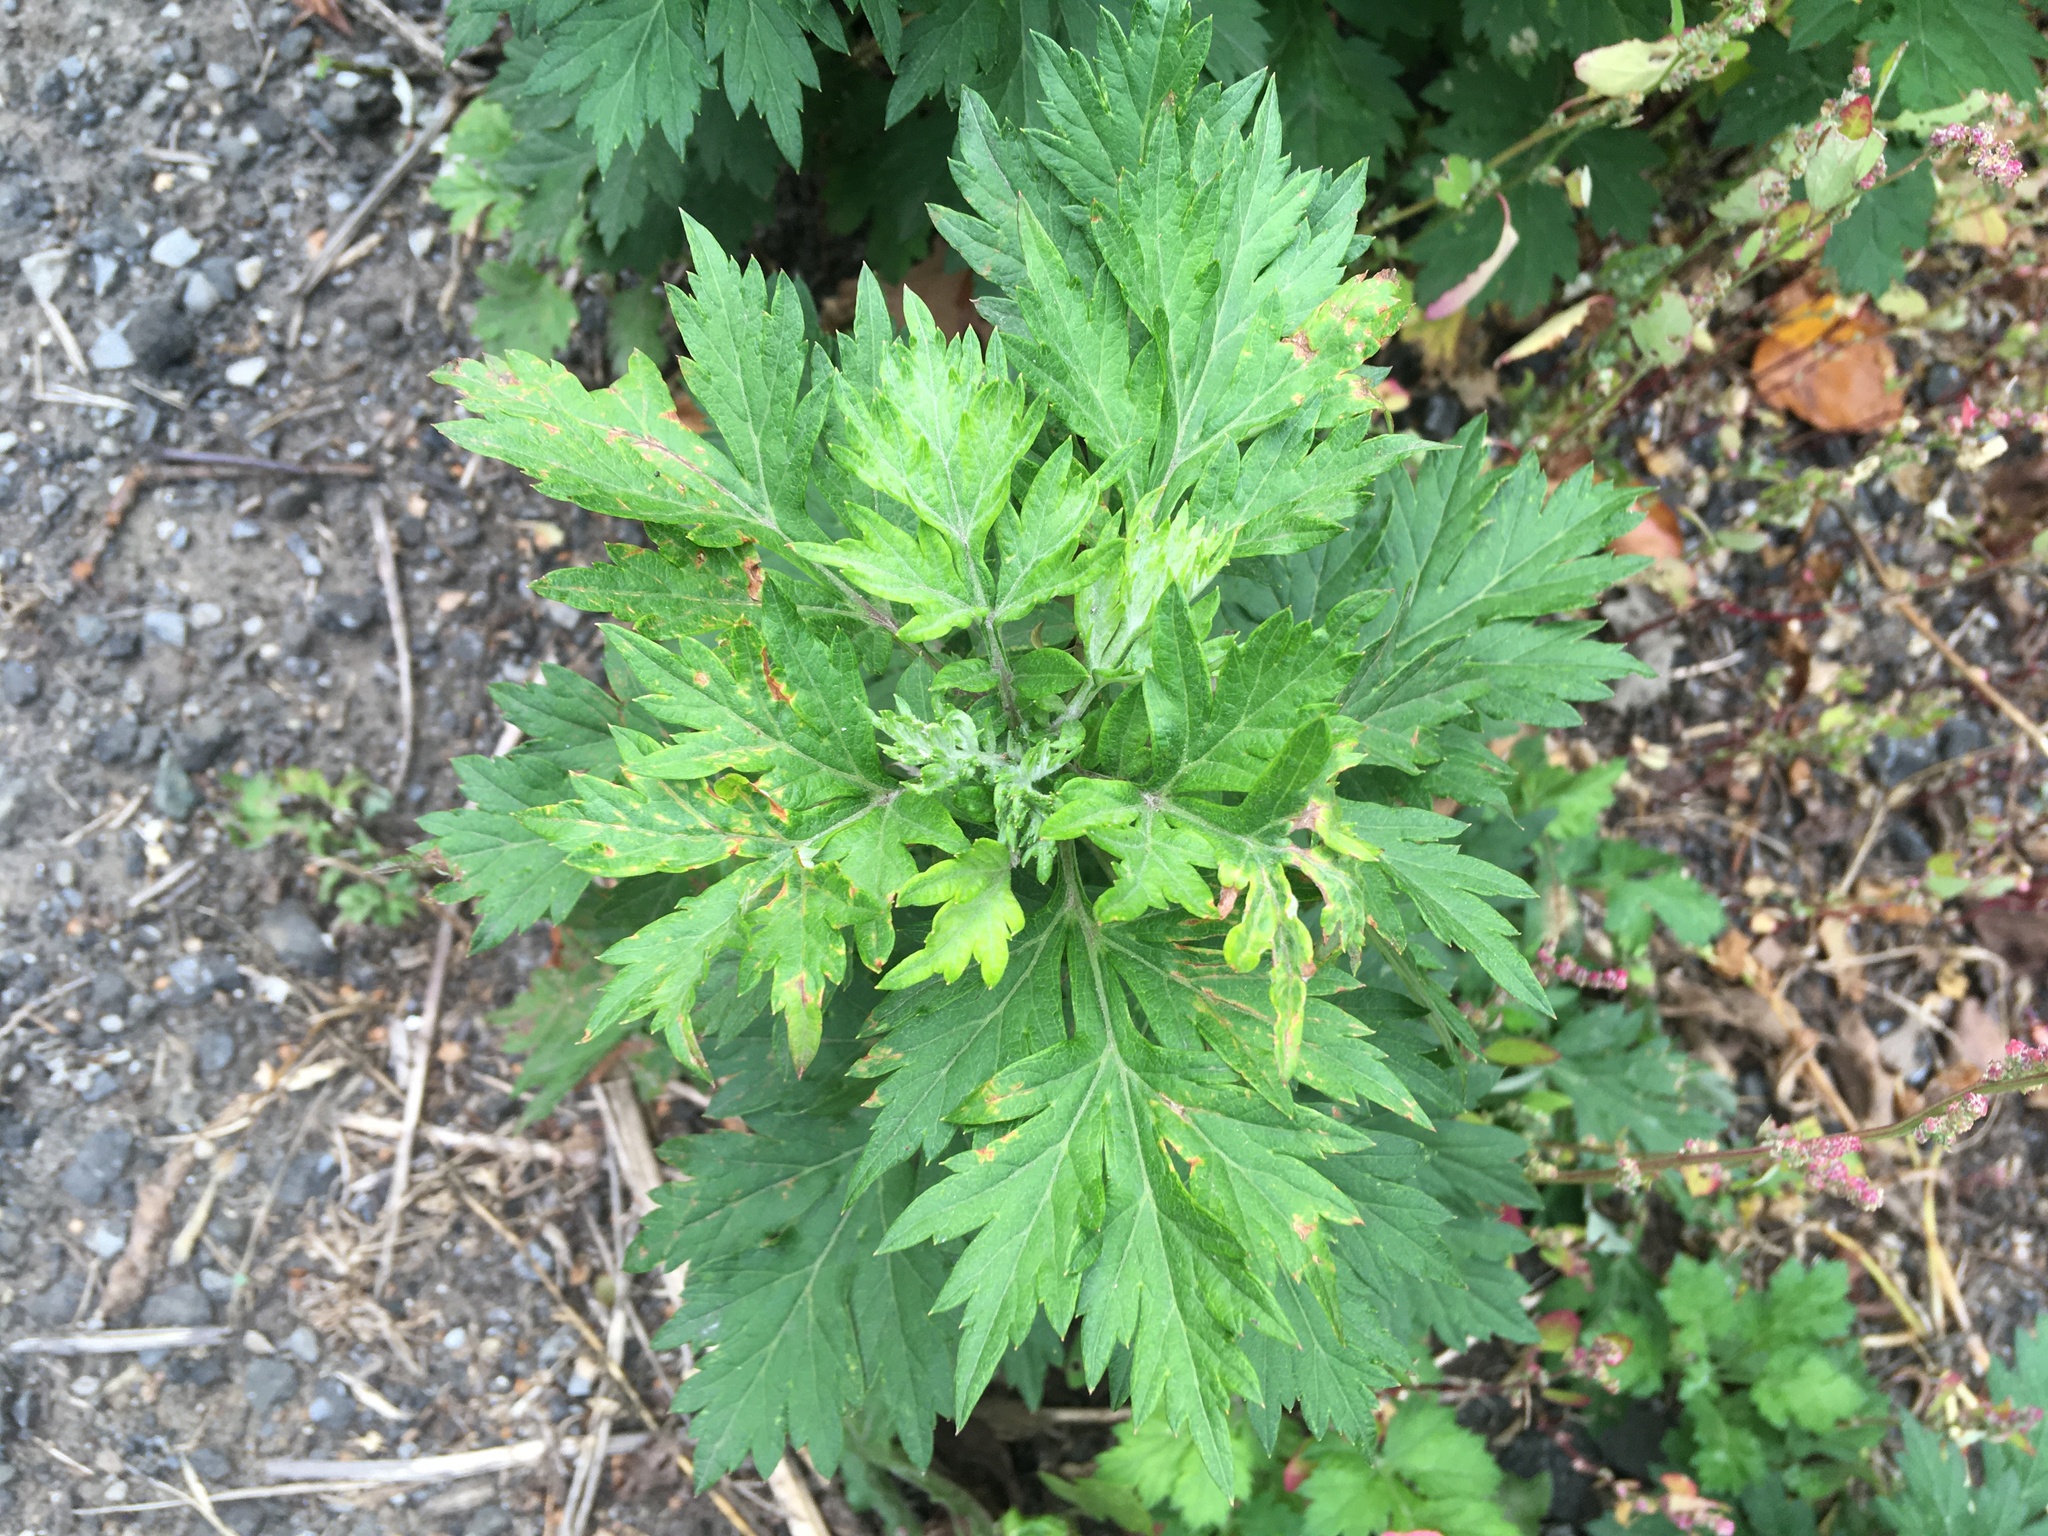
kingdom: Plantae
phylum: Tracheophyta
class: Magnoliopsida
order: Asterales
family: Asteraceae
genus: Artemisia
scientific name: Artemisia vulgaris
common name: Mugwort
